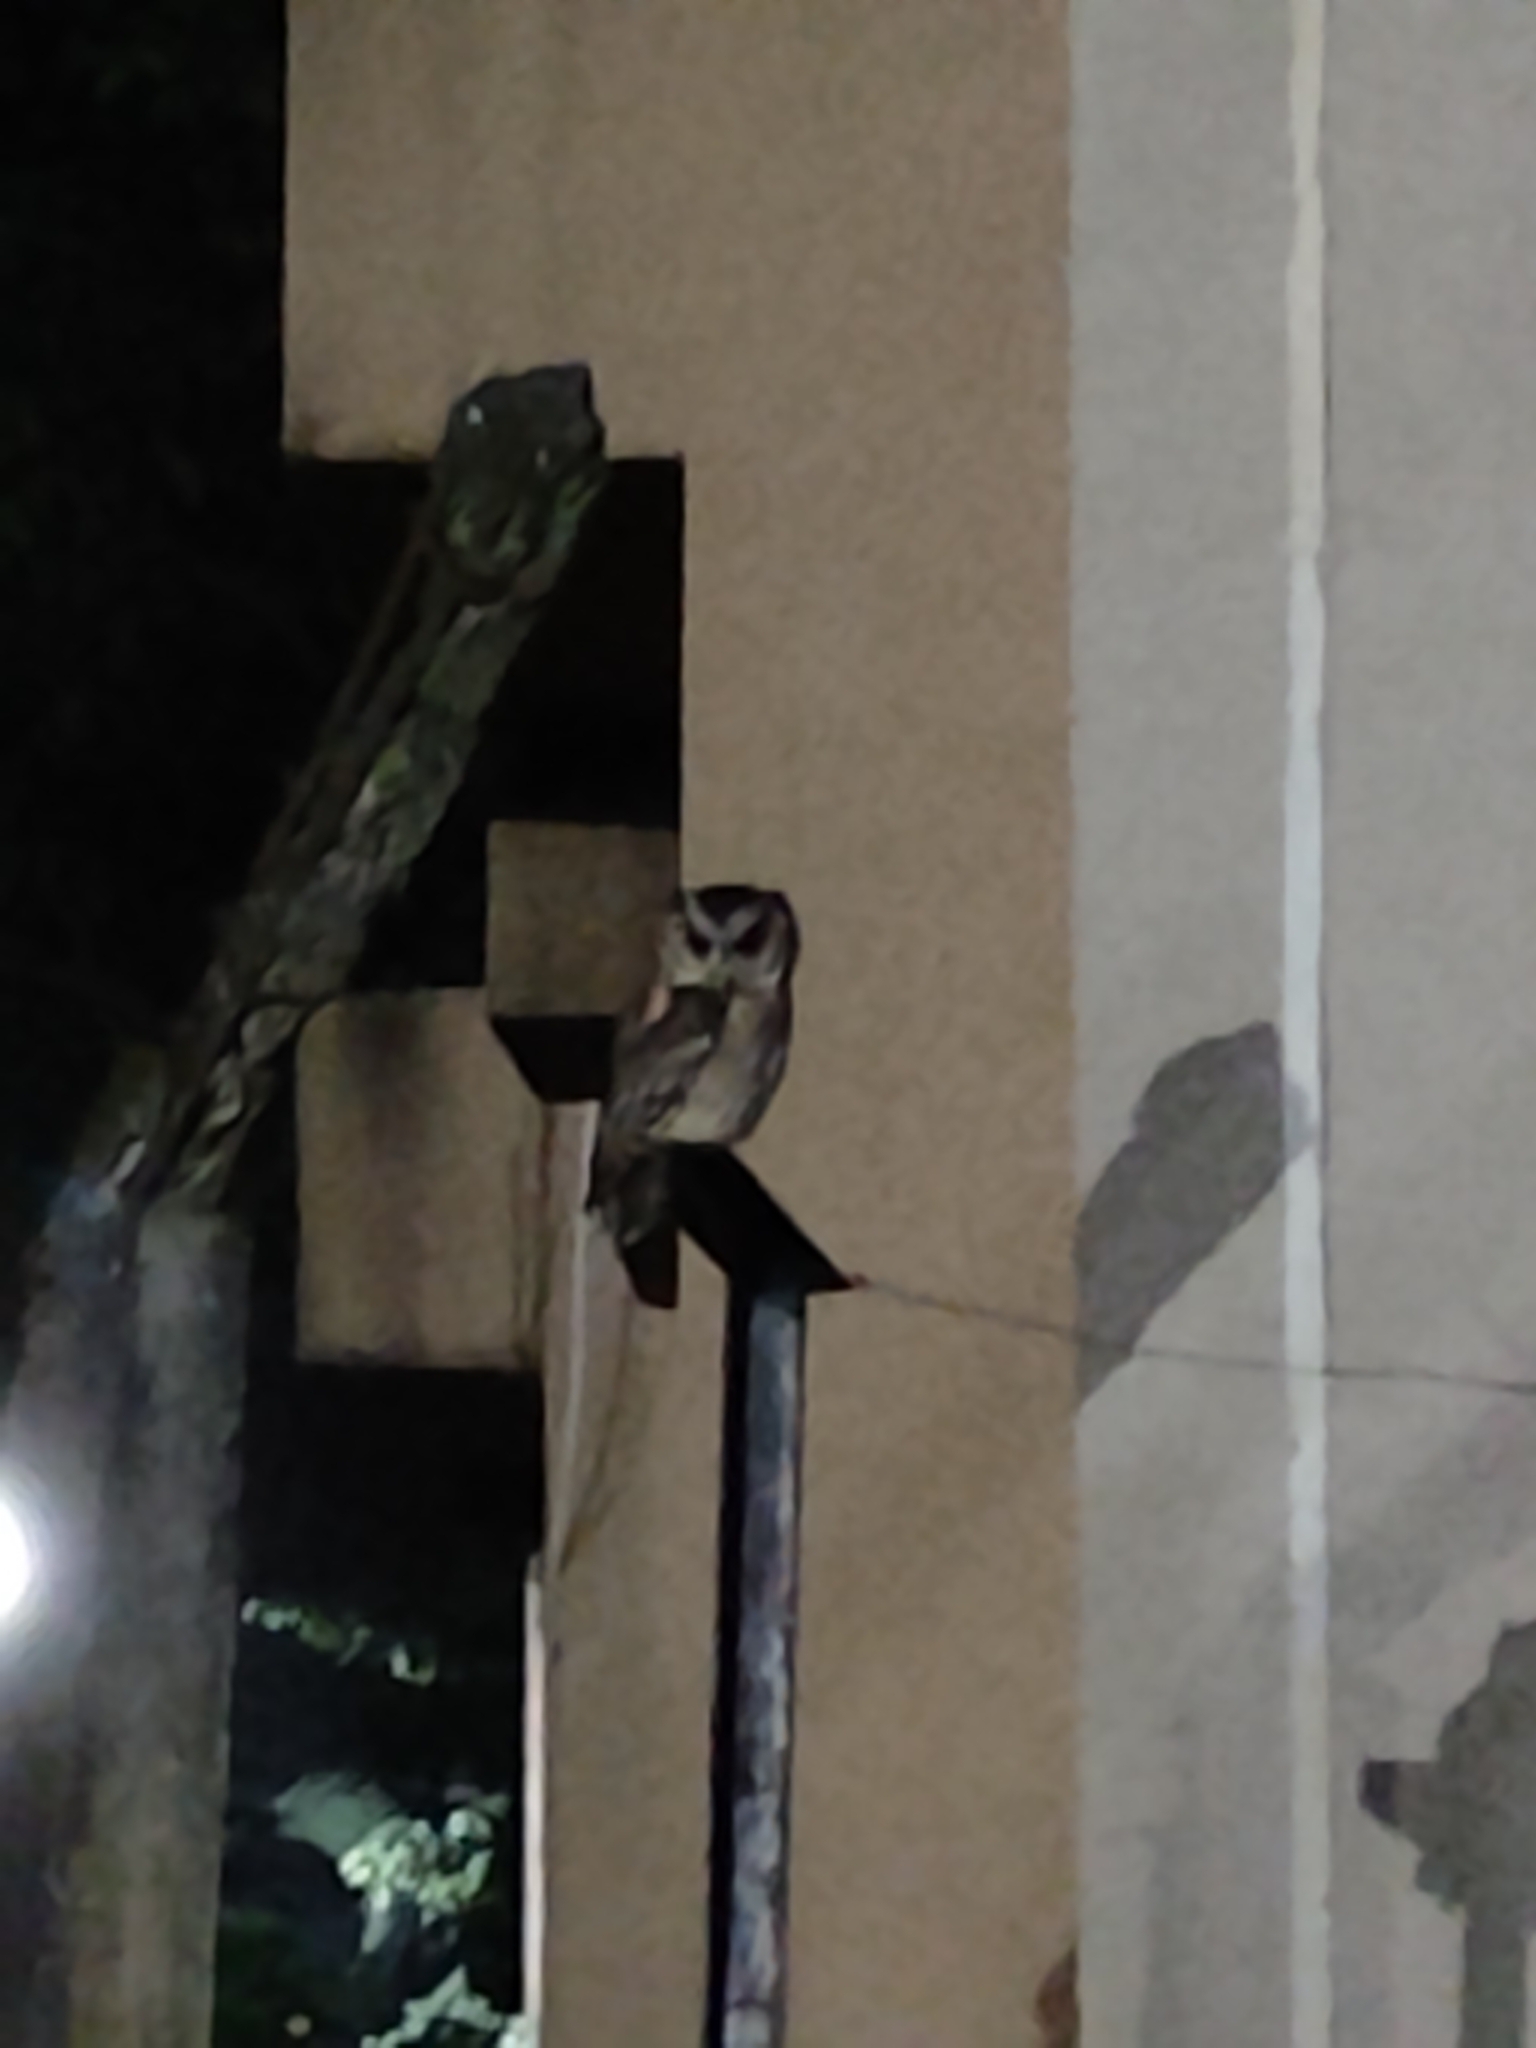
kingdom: Animalia
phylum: Chordata
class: Aves
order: Strigiformes
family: Strigidae
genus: Otus
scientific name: Otus lettia
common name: Collared scops owl
